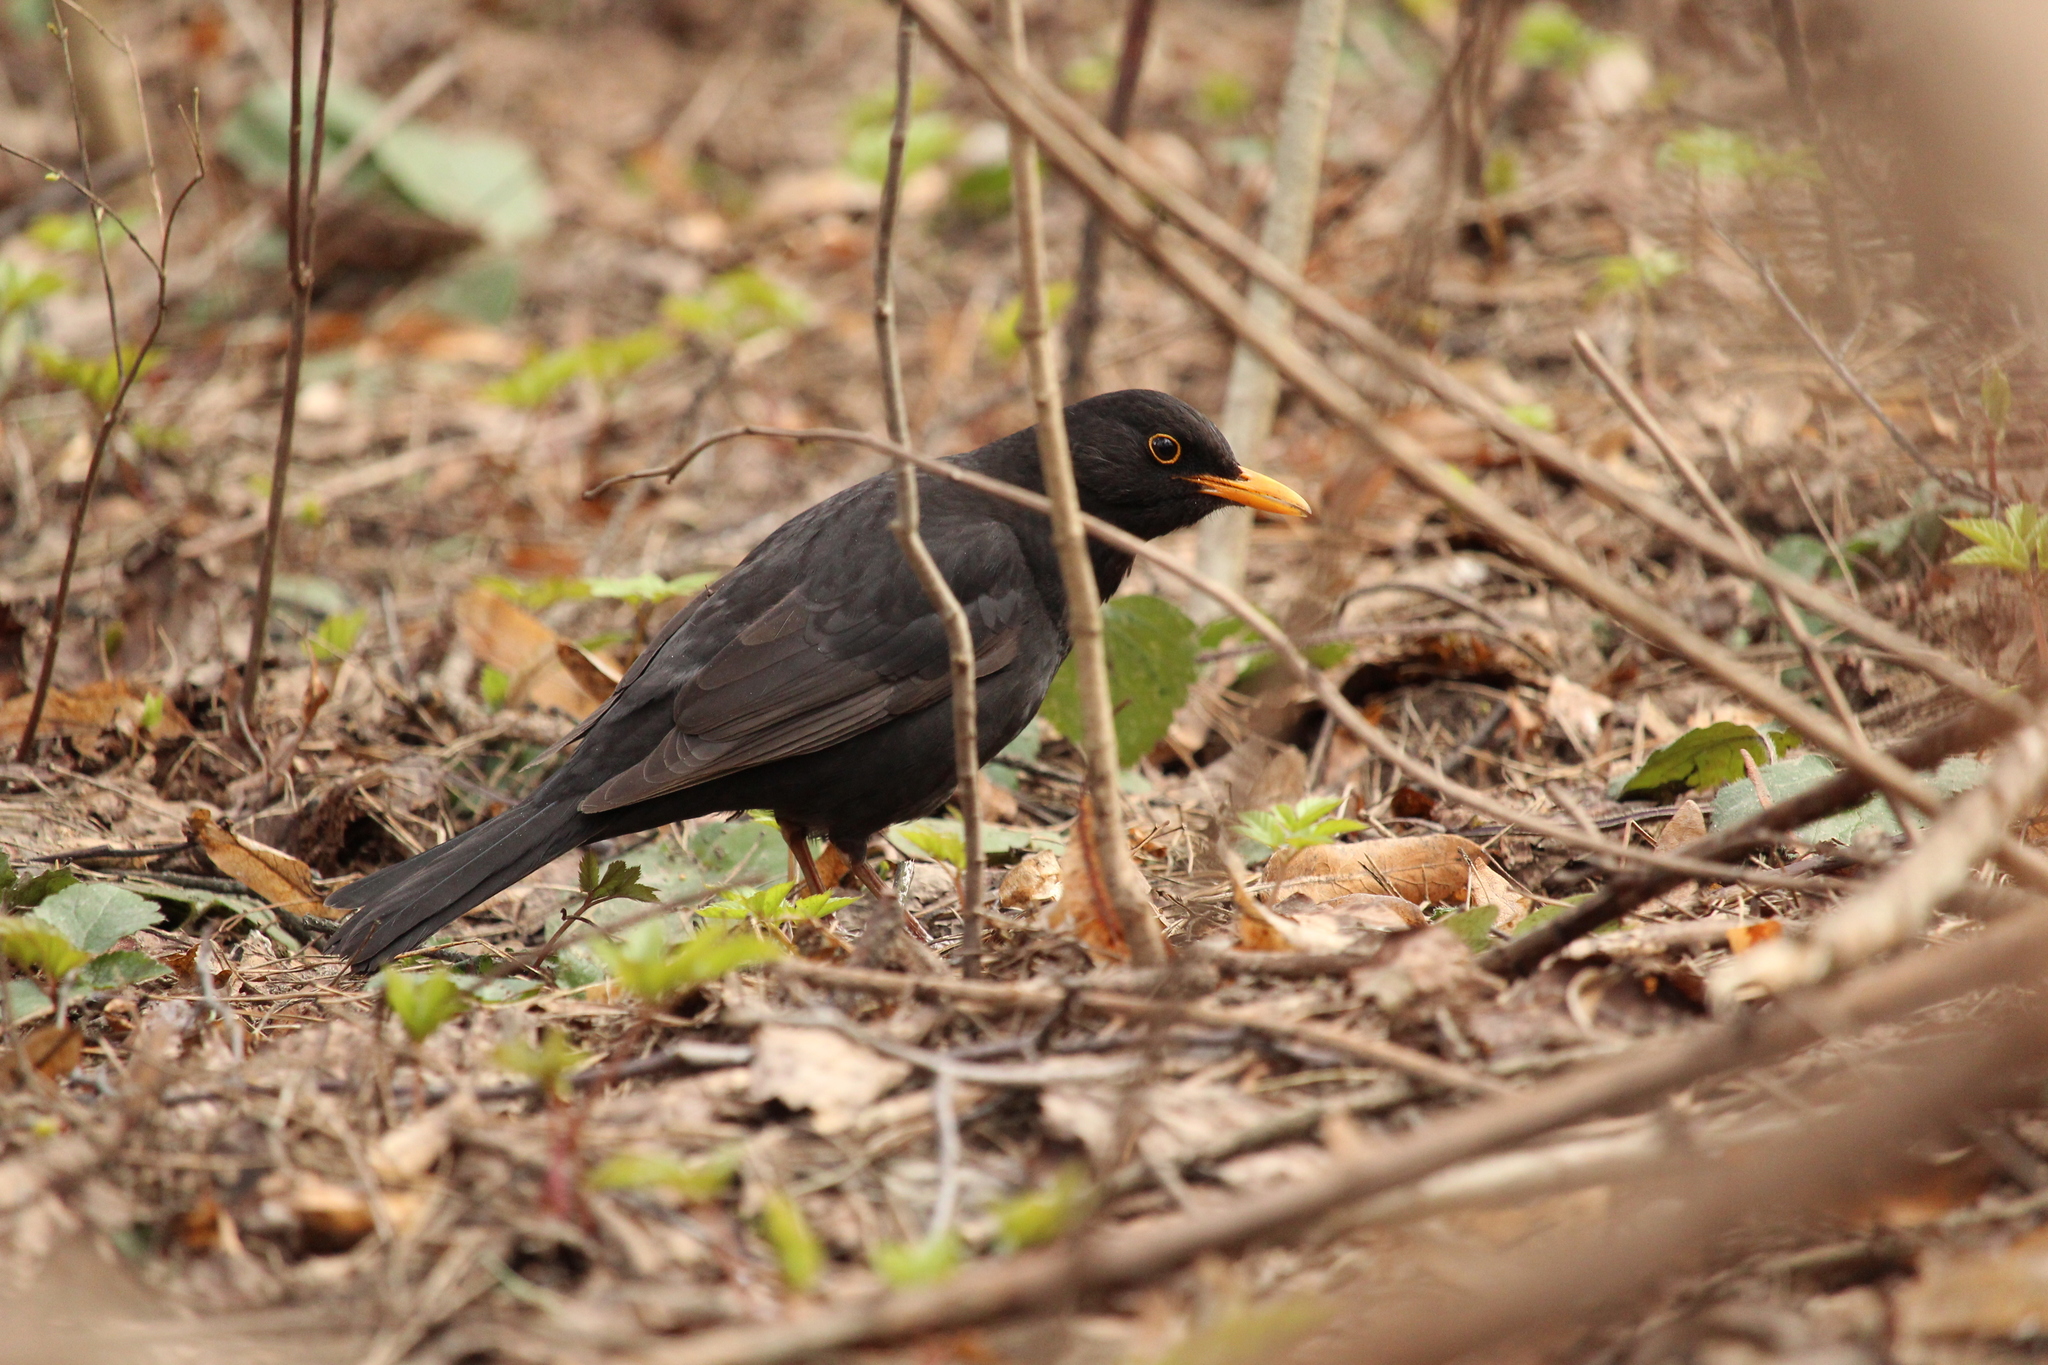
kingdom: Animalia
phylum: Chordata
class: Aves
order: Passeriformes
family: Turdidae
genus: Turdus
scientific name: Turdus merula
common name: Common blackbird
